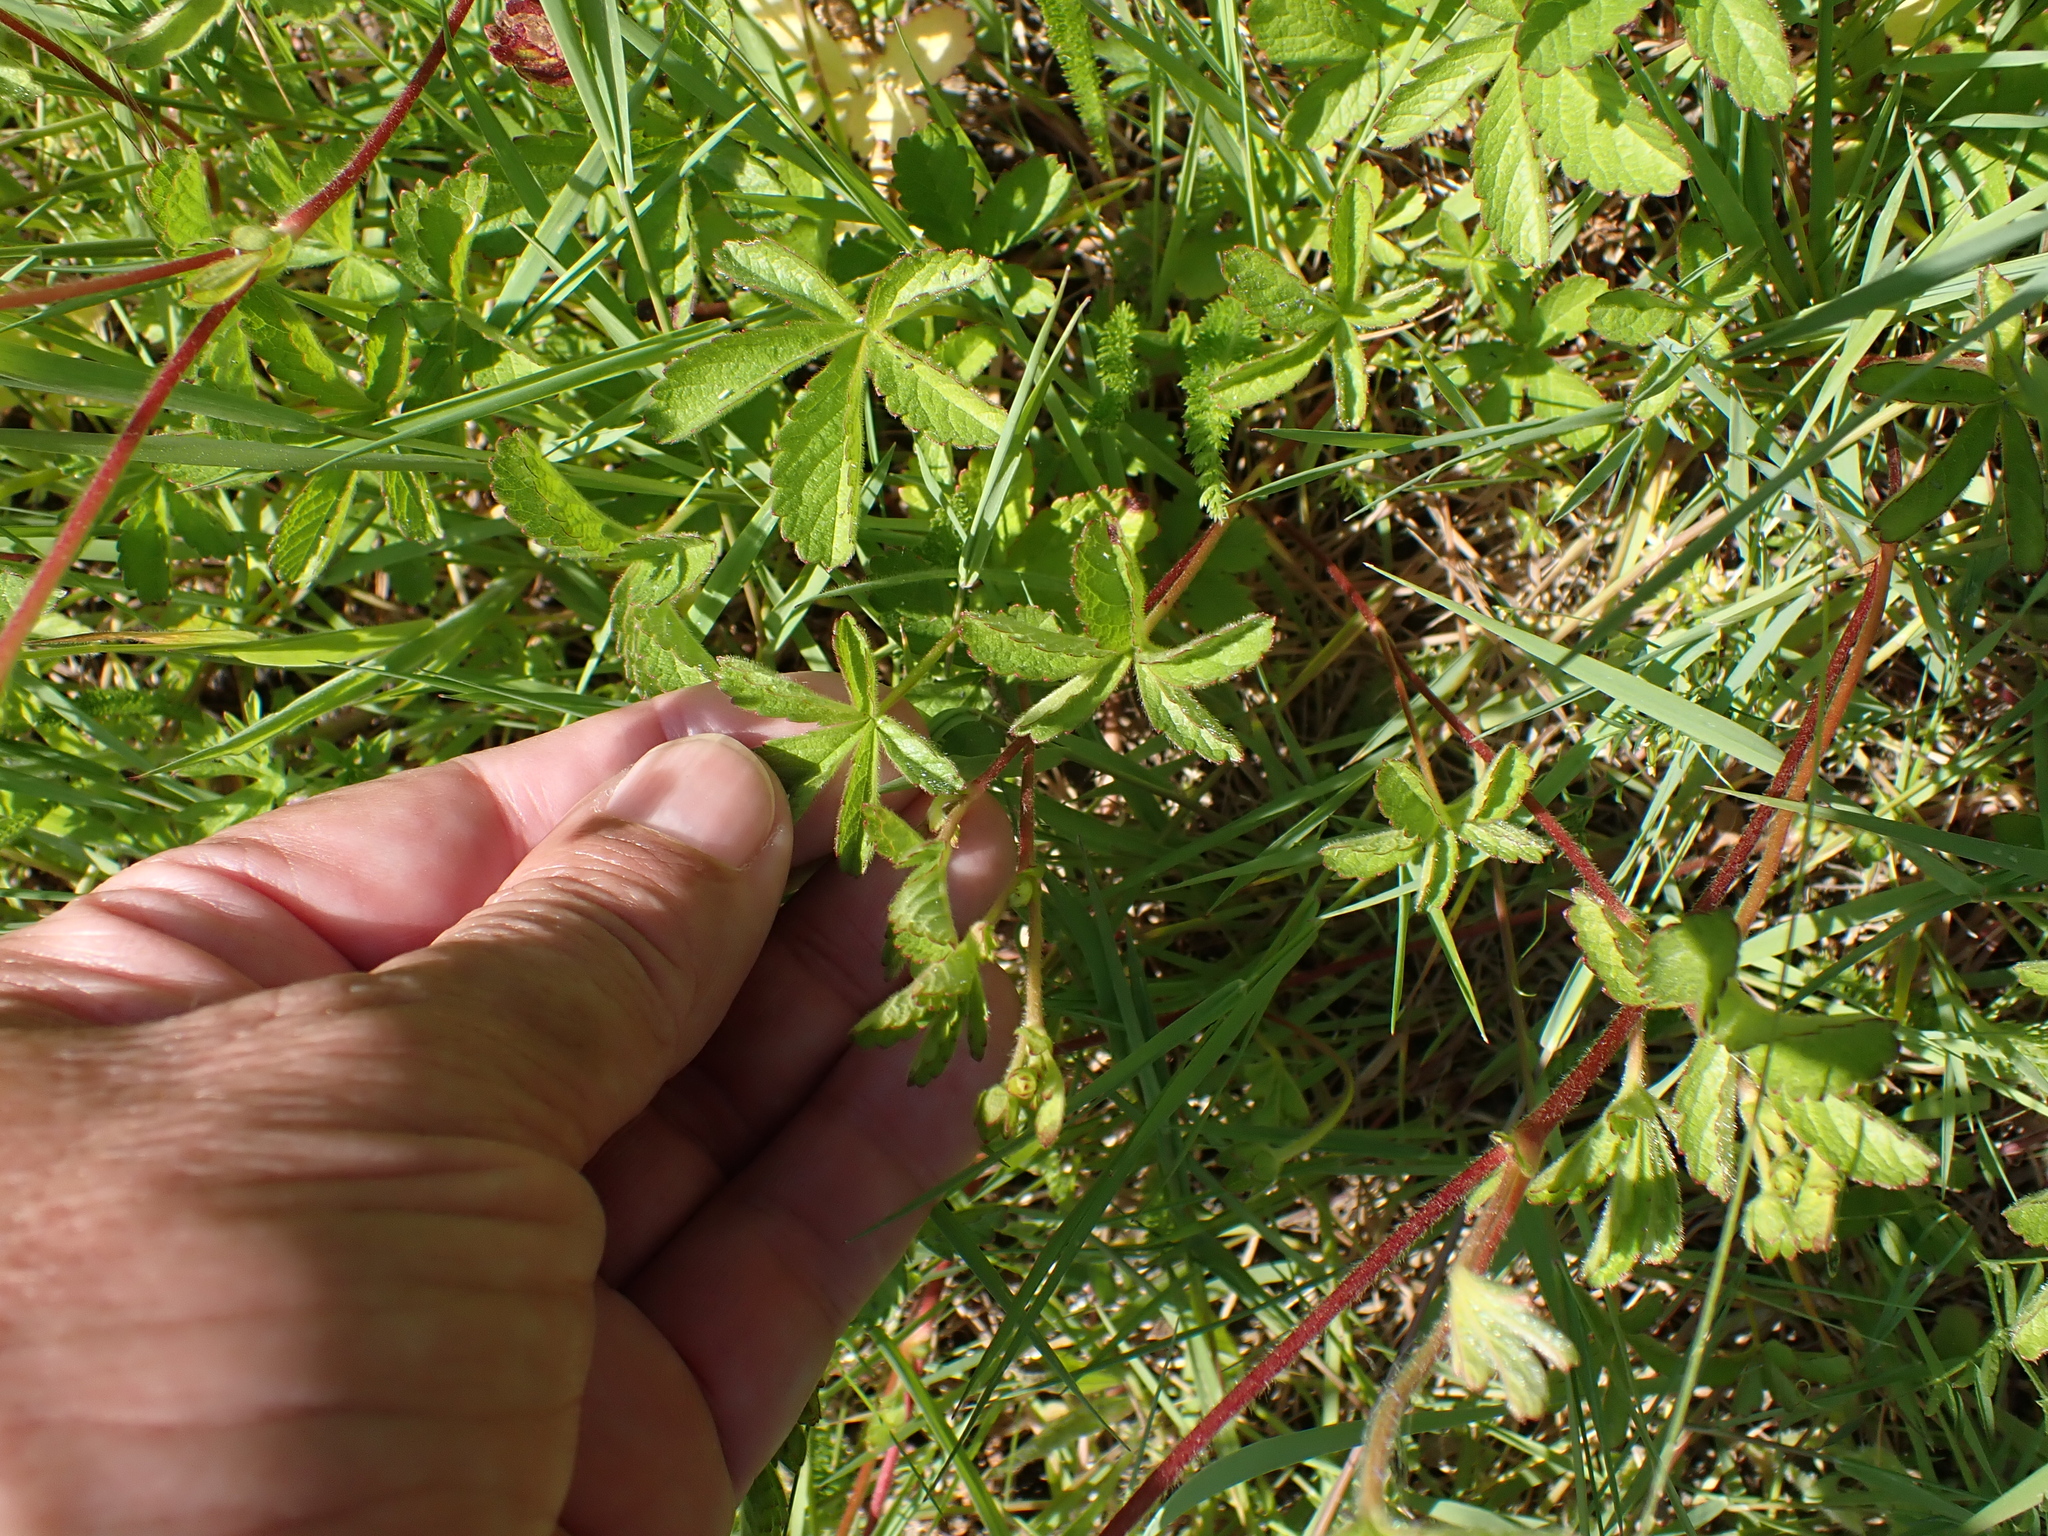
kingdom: Plantae
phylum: Tracheophyta
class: Magnoliopsida
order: Rosales
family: Rosaceae
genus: Potentilla
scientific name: Potentilla reptans
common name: Creeping cinquefoil
